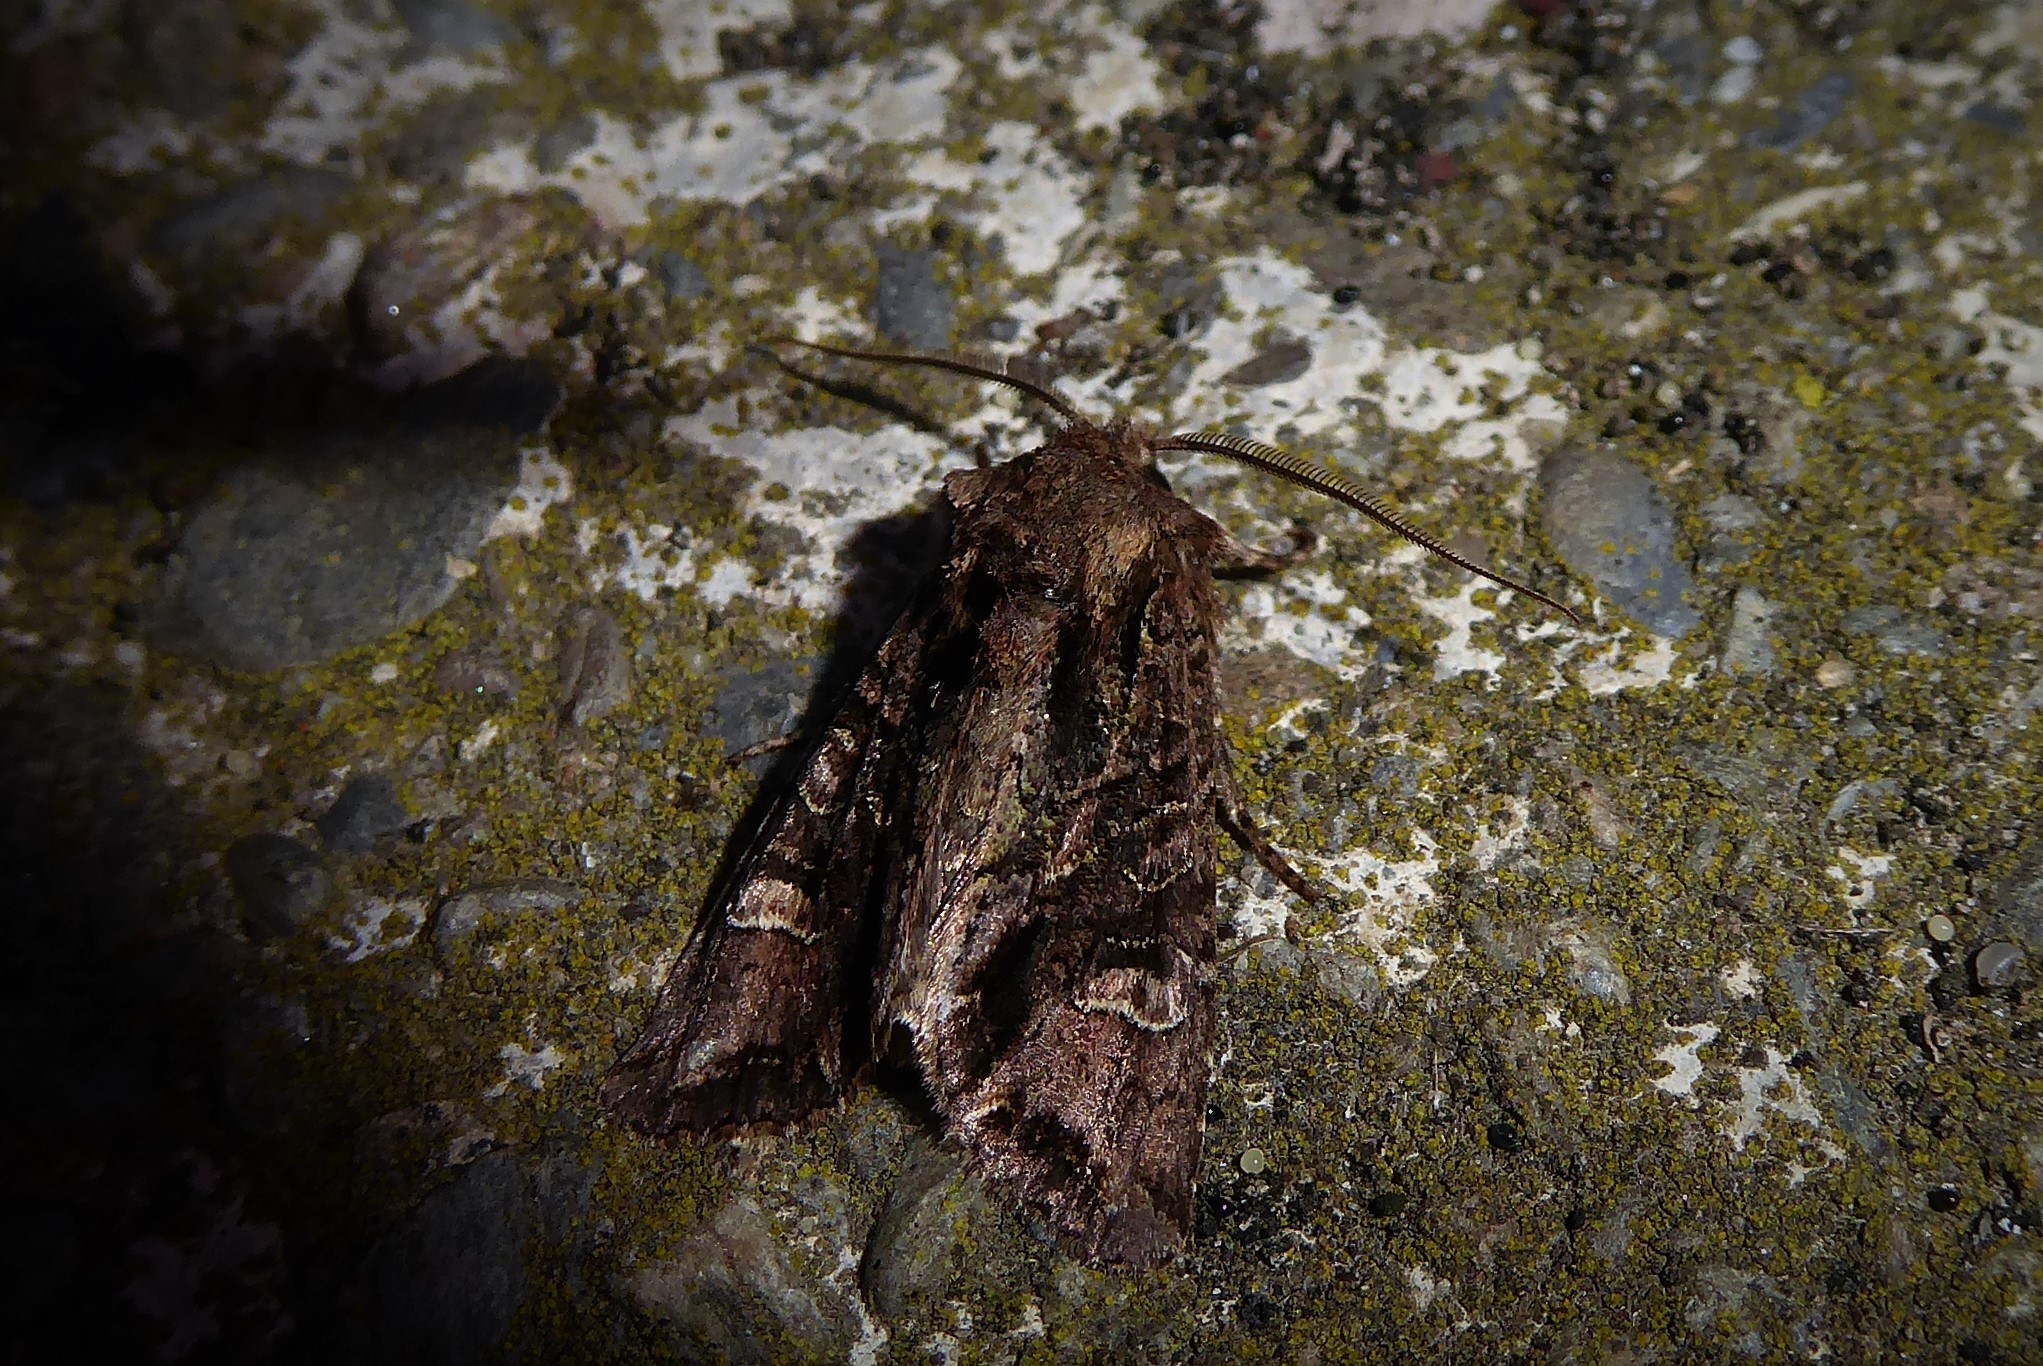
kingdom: Animalia
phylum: Arthropoda
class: Insecta
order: Lepidoptera
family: Noctuidae
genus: Ichneutica
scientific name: Ichneutica insignis
